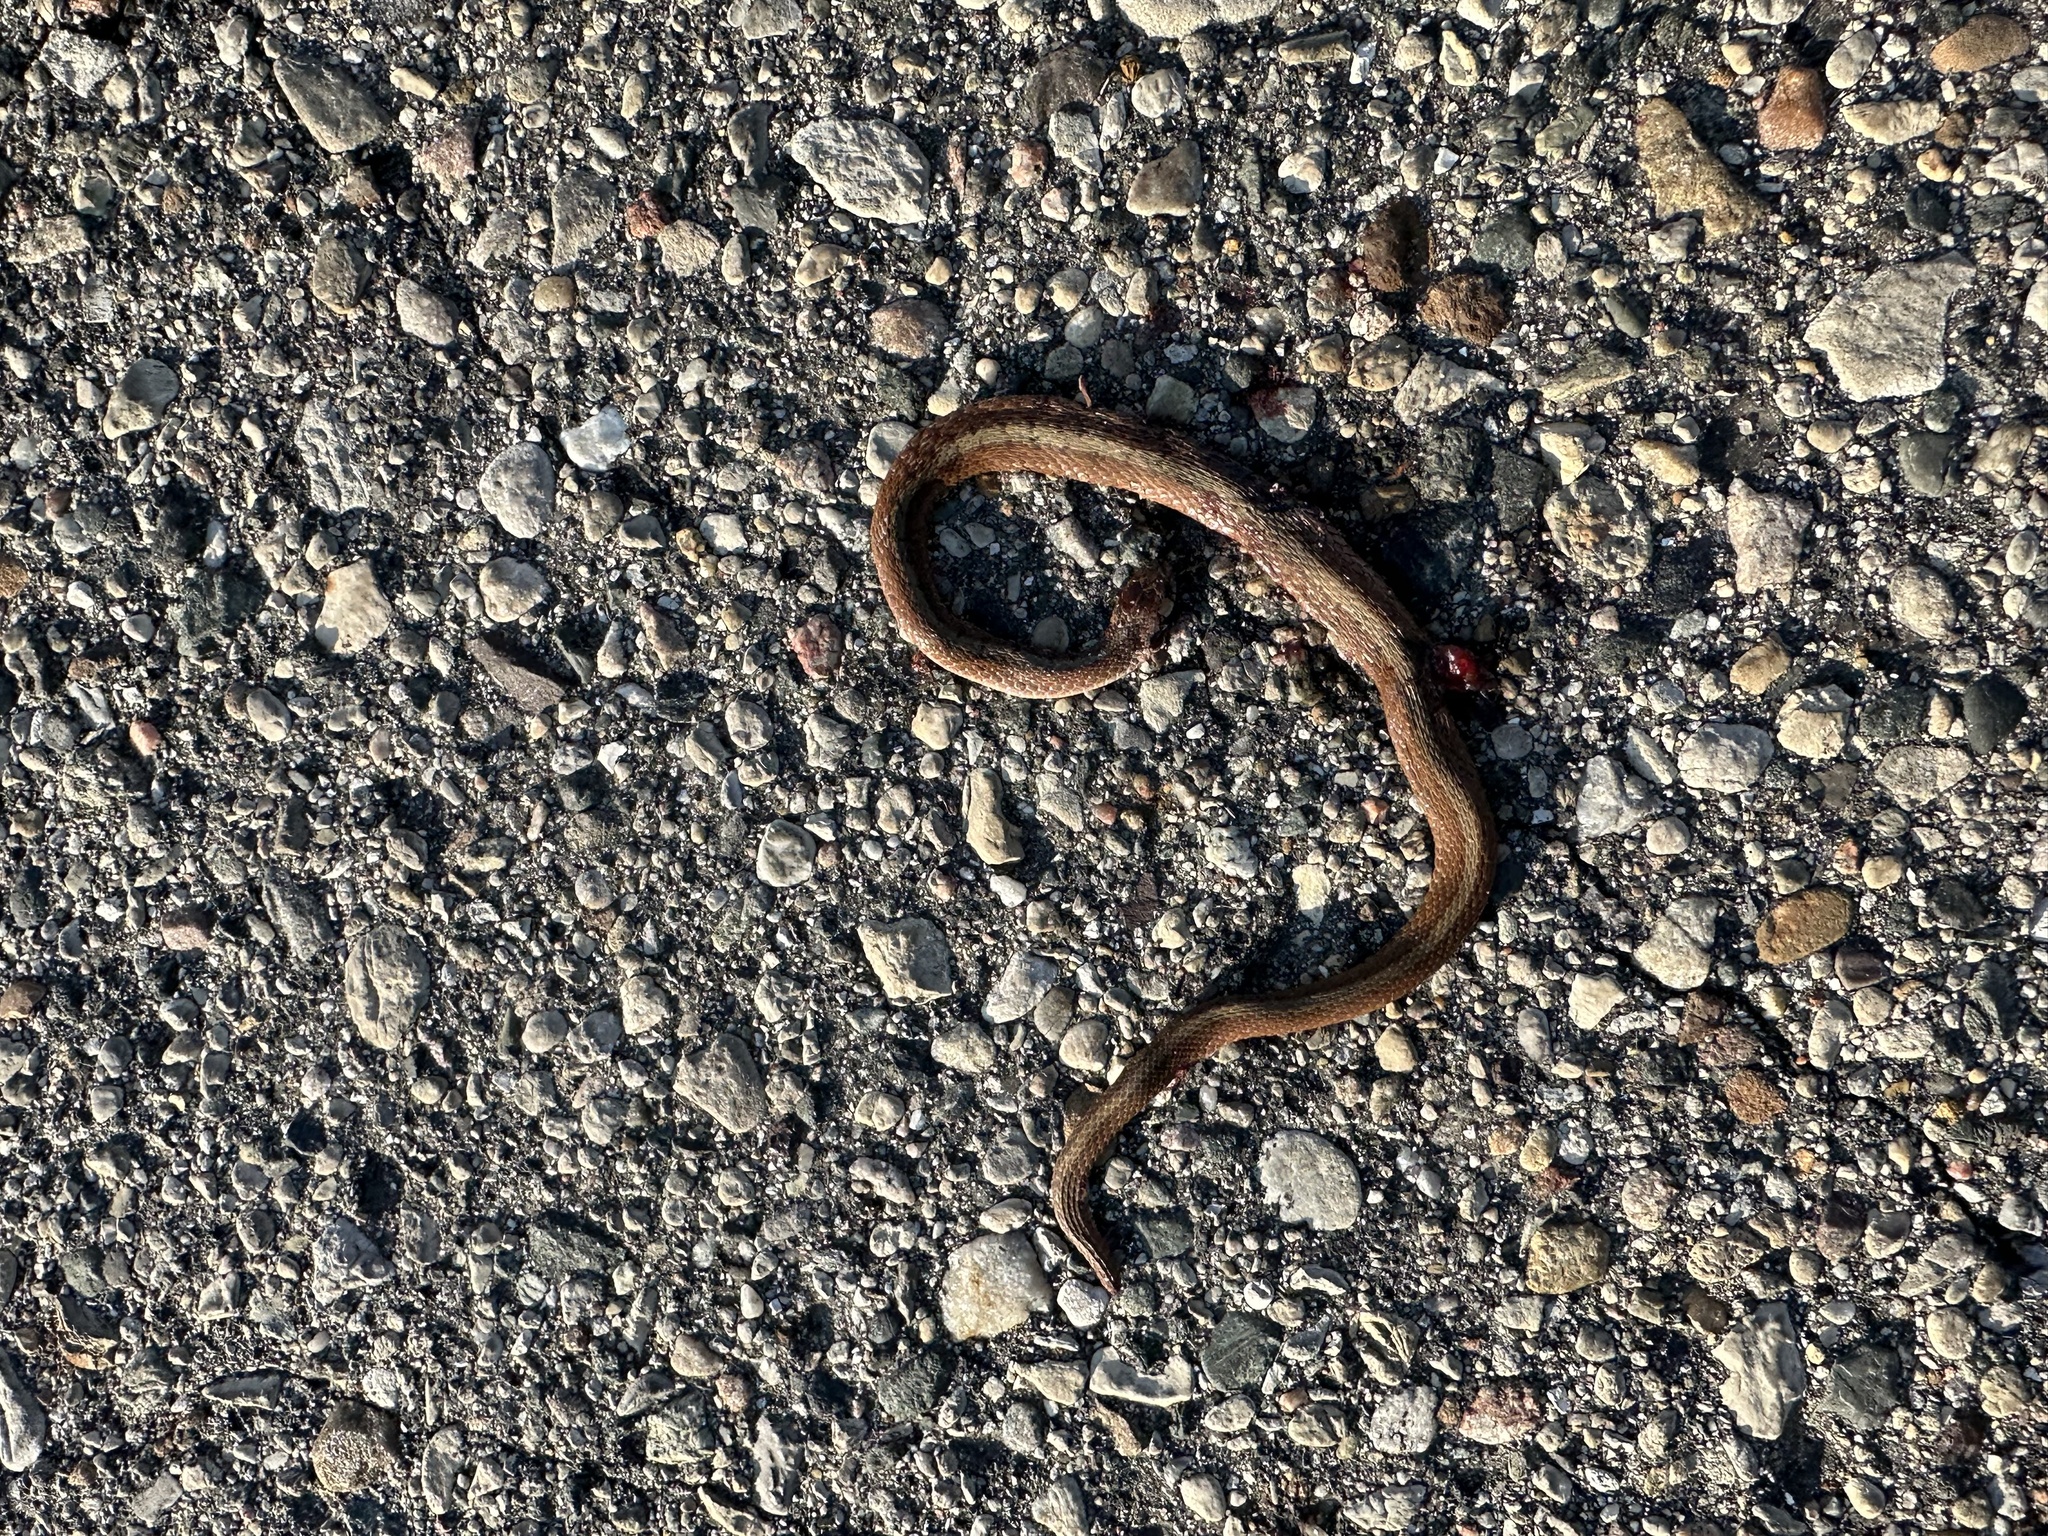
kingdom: Animalia
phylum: Chordata
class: Squamata
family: Colubridae
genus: Storeria
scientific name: Storeria dekayi
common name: (dekay’s) brown snake
